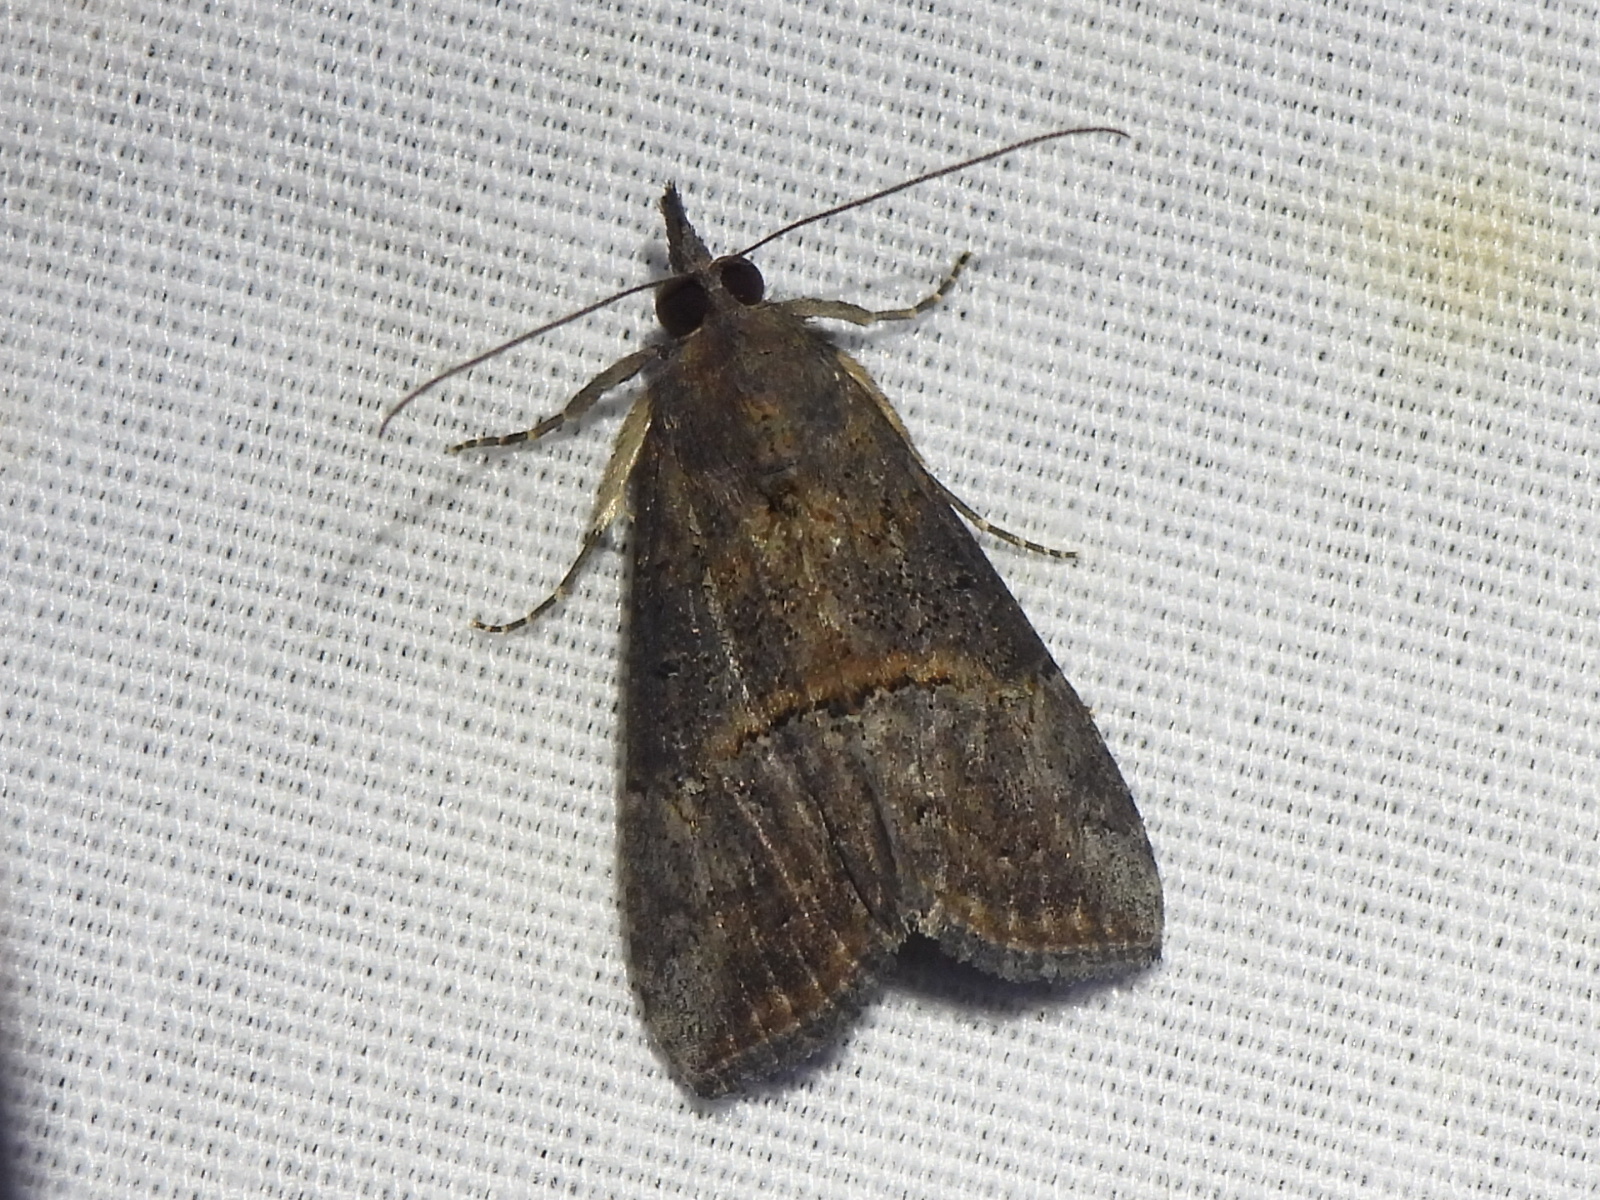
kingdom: Animalia
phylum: Arthropoda
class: Insecta
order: Lepidoptera
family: Erebidae
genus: Hypena
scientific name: Hypena scabra
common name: Green cloverworm
